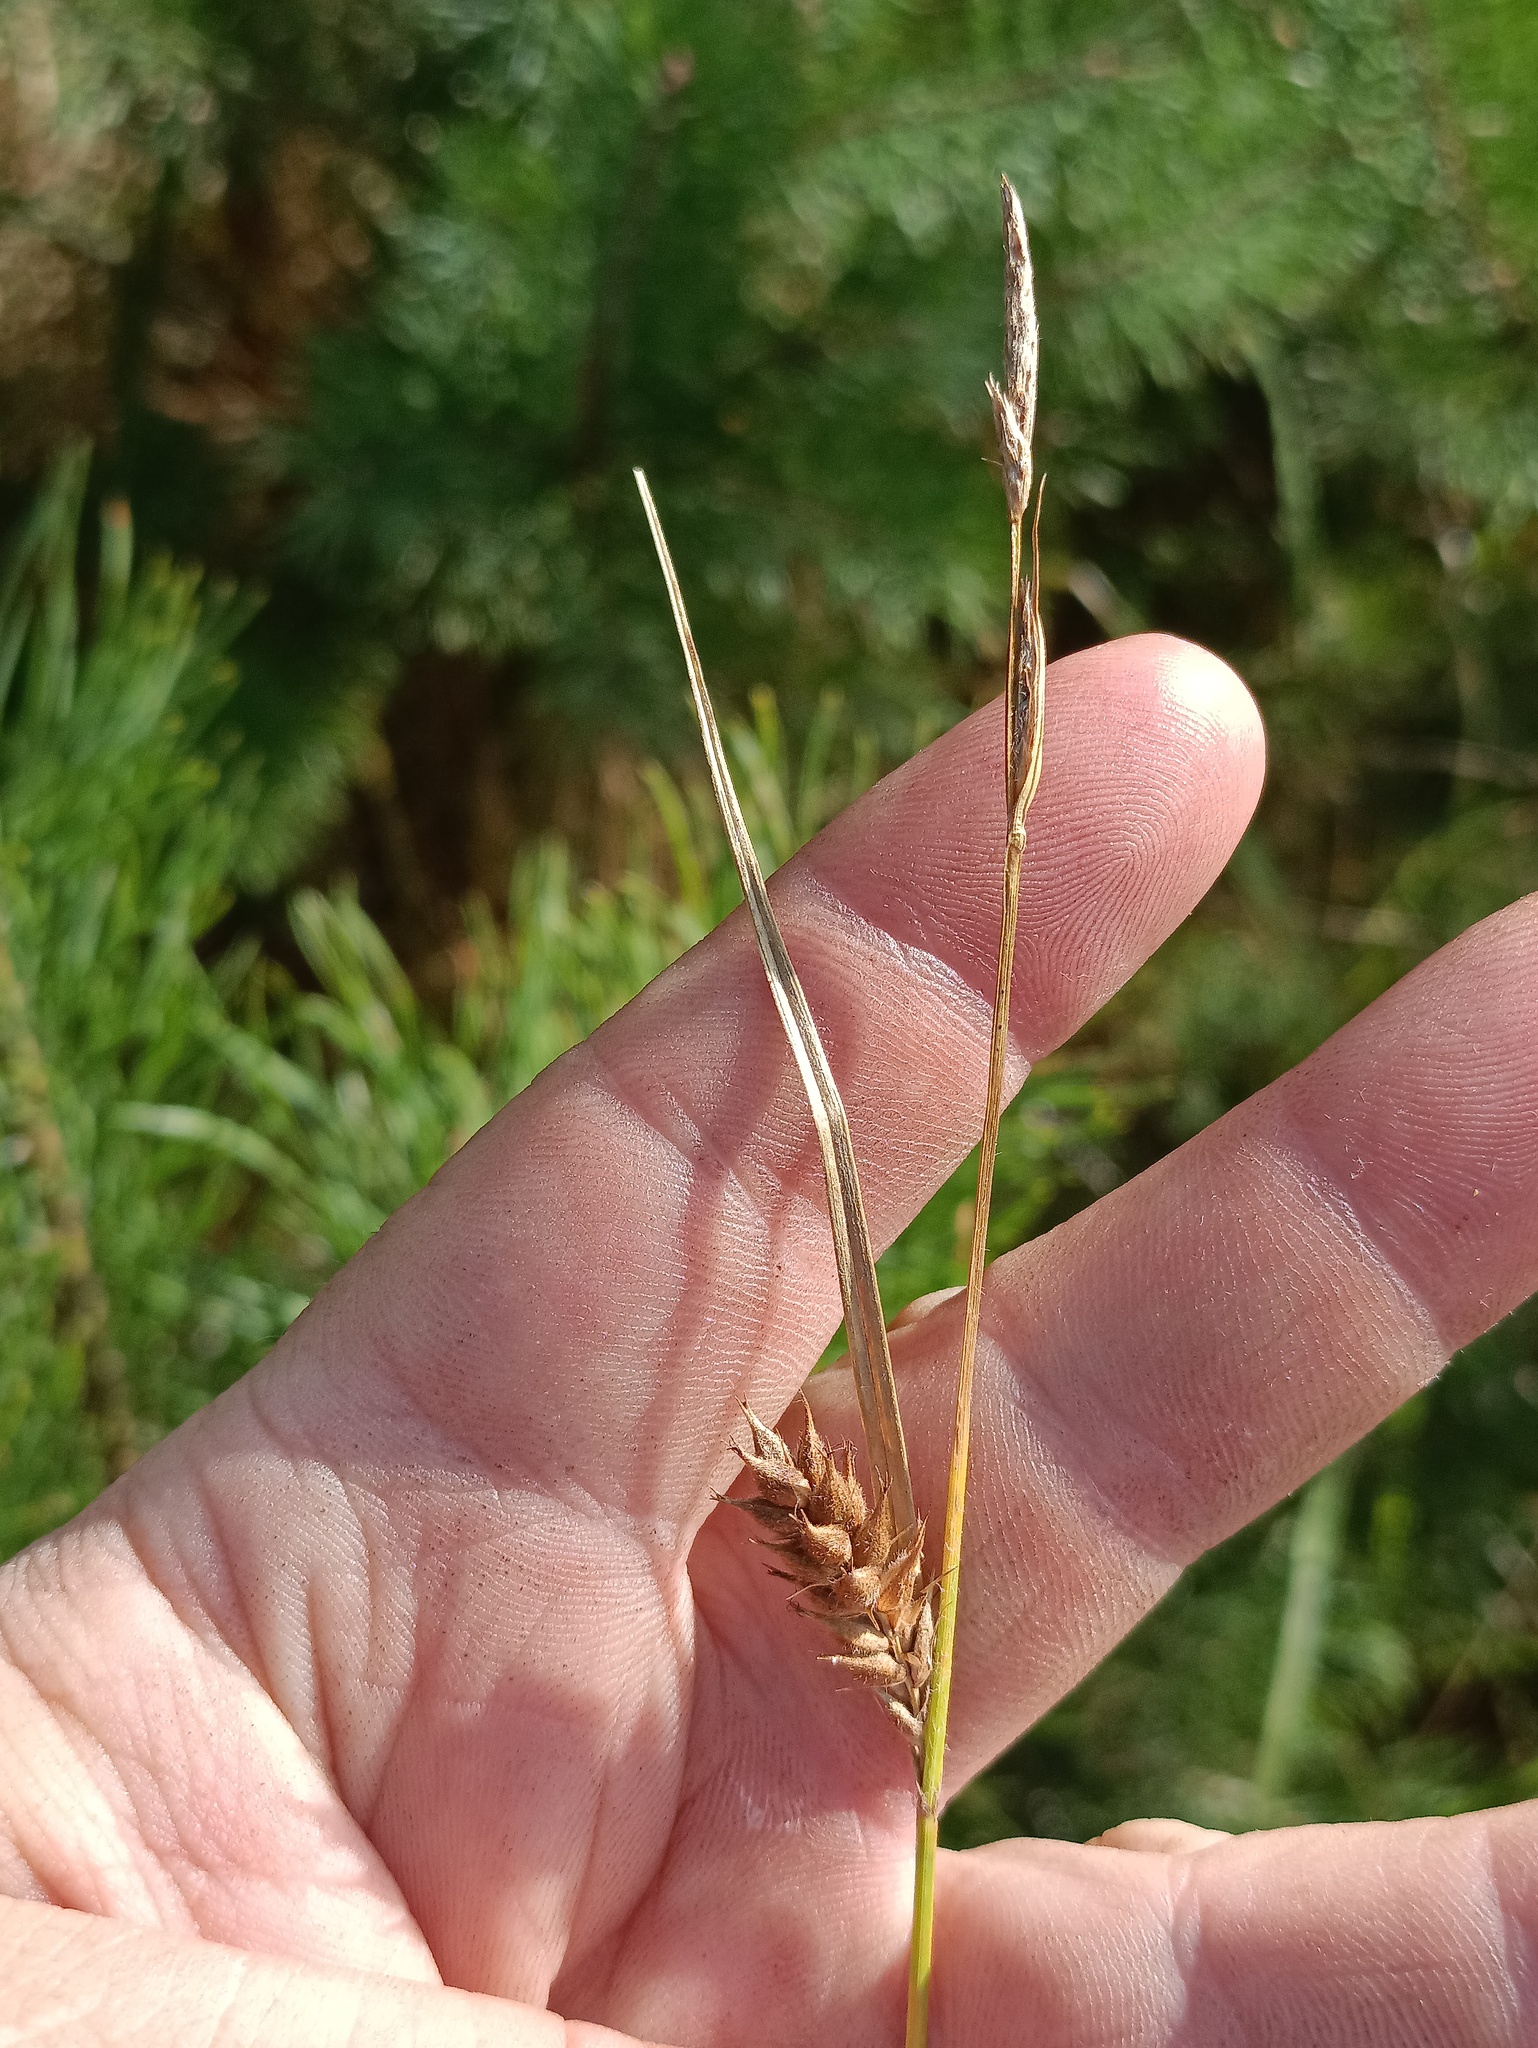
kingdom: Plantae
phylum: Tracheophyta
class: Liliopsida
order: Poales
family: Cyperaceae
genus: Carex
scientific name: Carex hirta
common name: Hairy sedge
